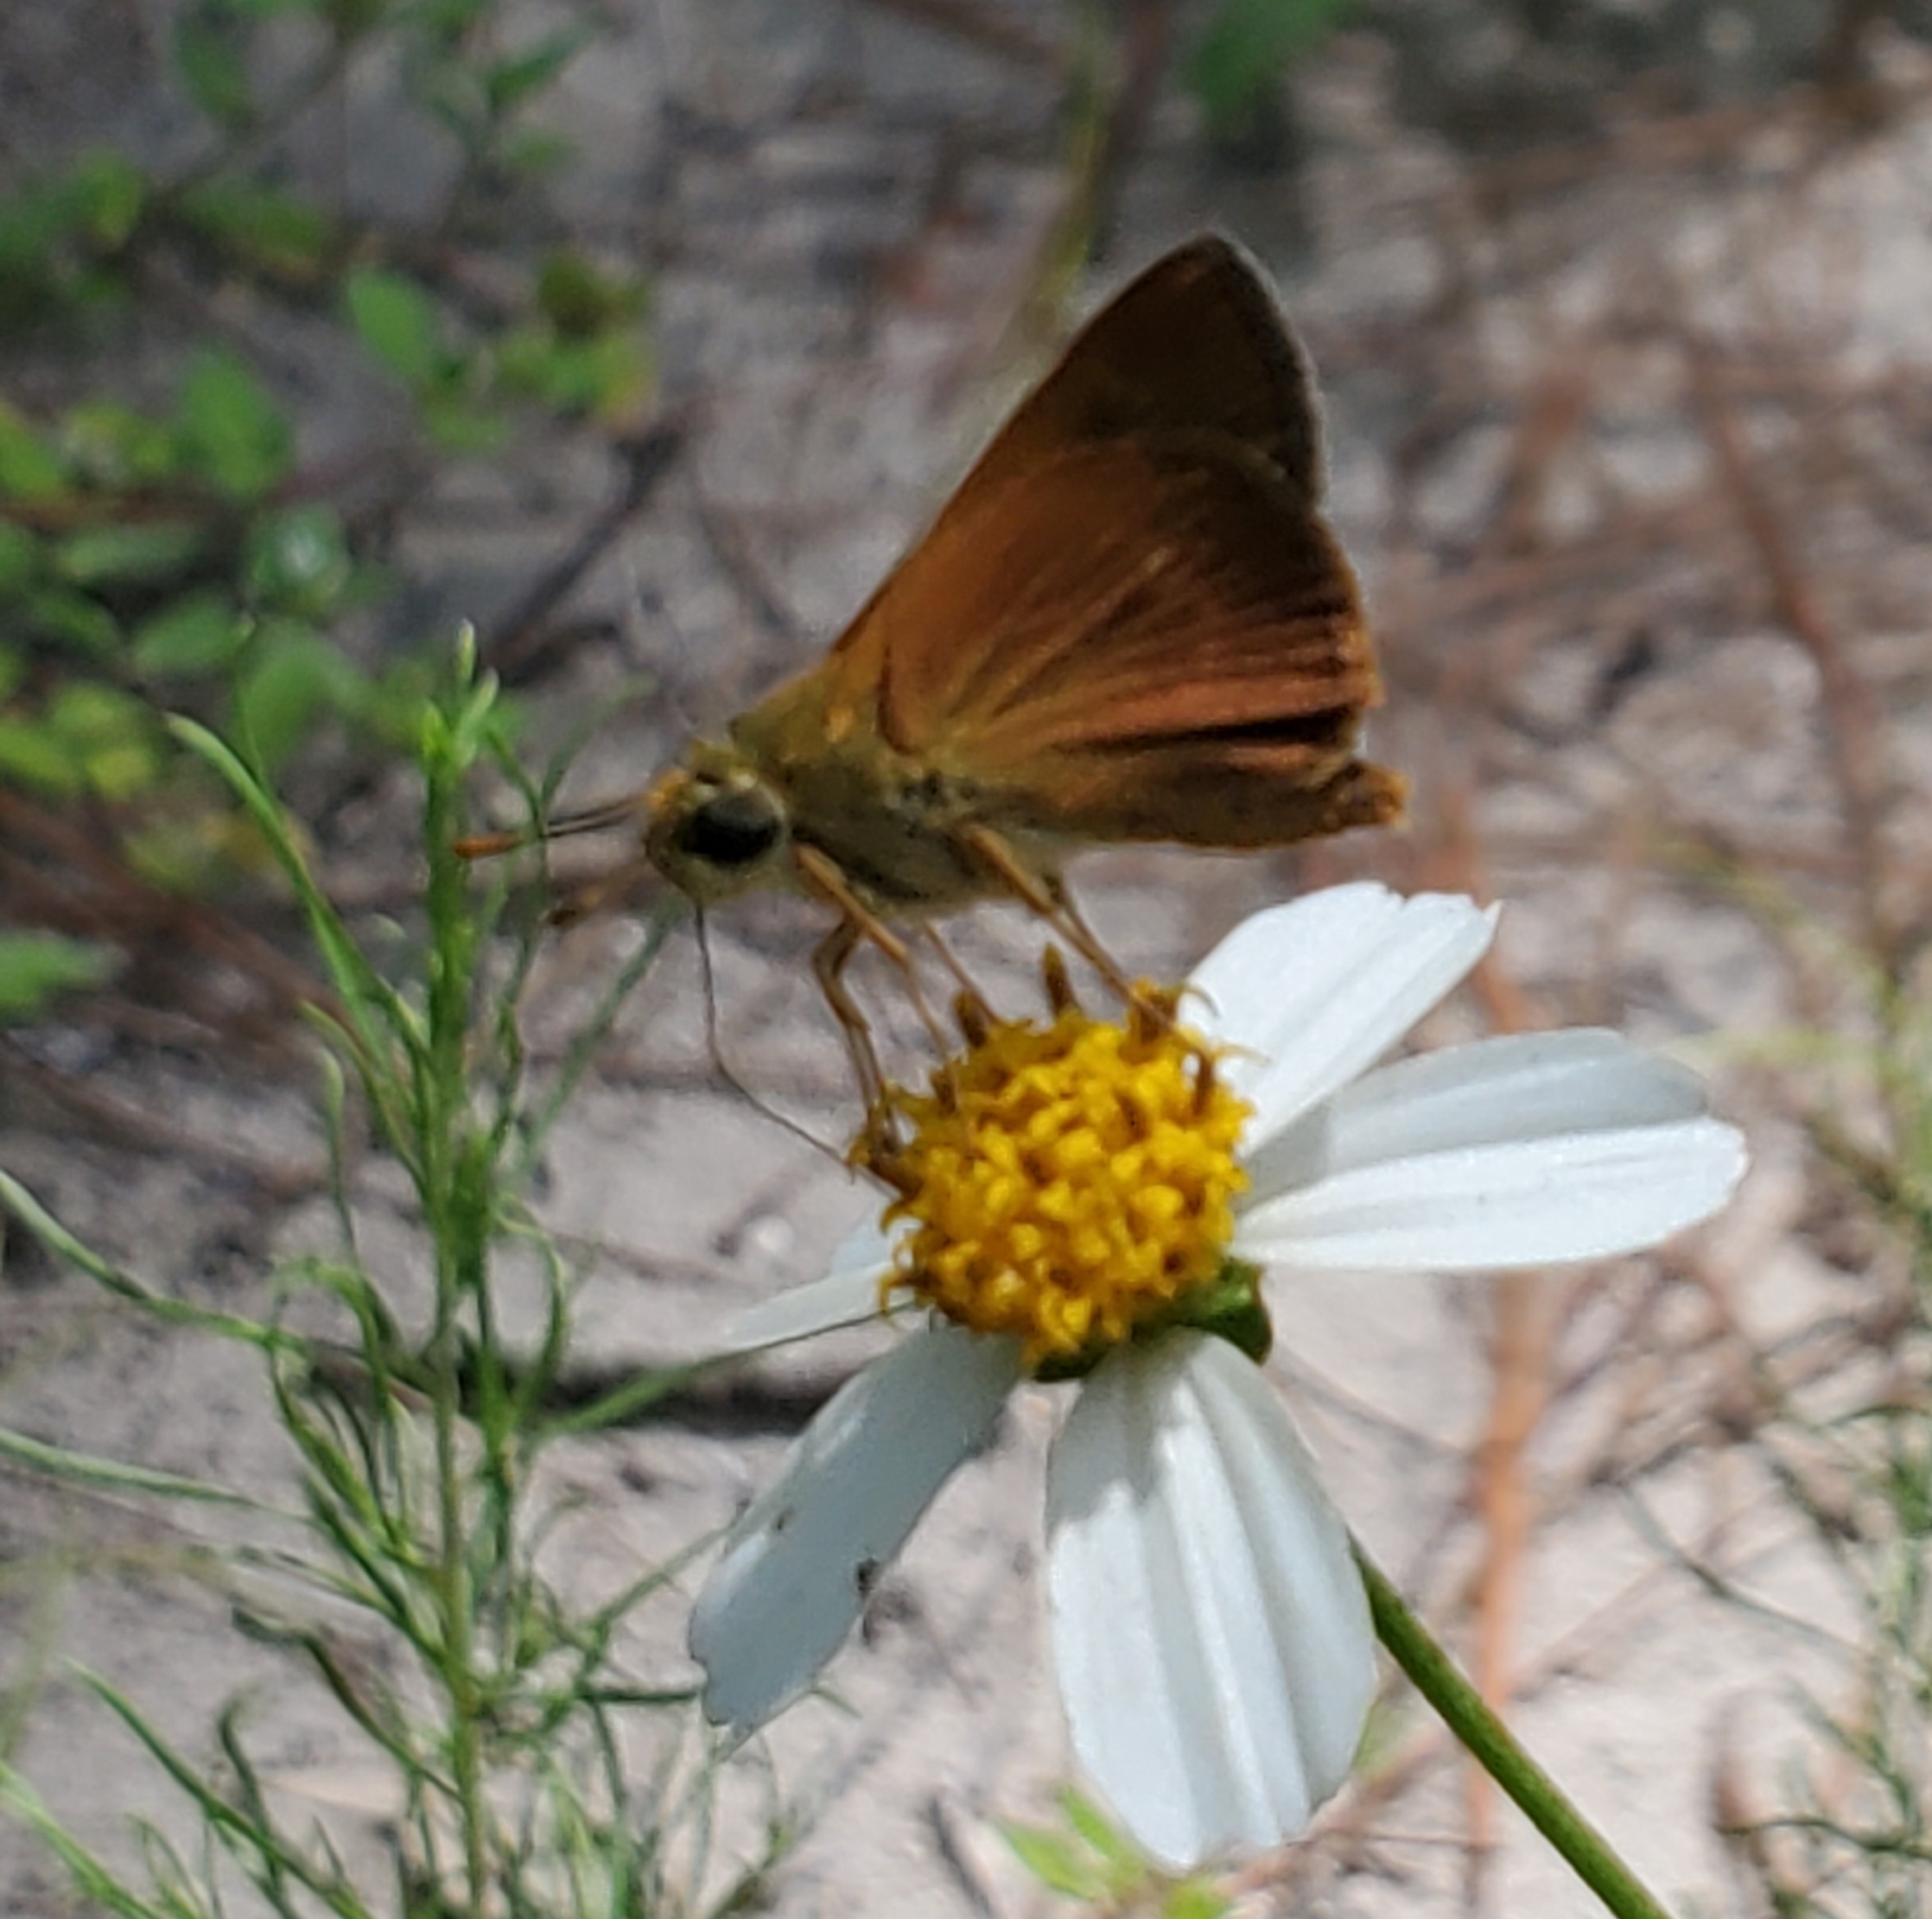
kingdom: Animalia
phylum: Arthropoda
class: Insecta
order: Lepidoptera
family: Hesperiidae
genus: Polites
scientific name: Polites otho
